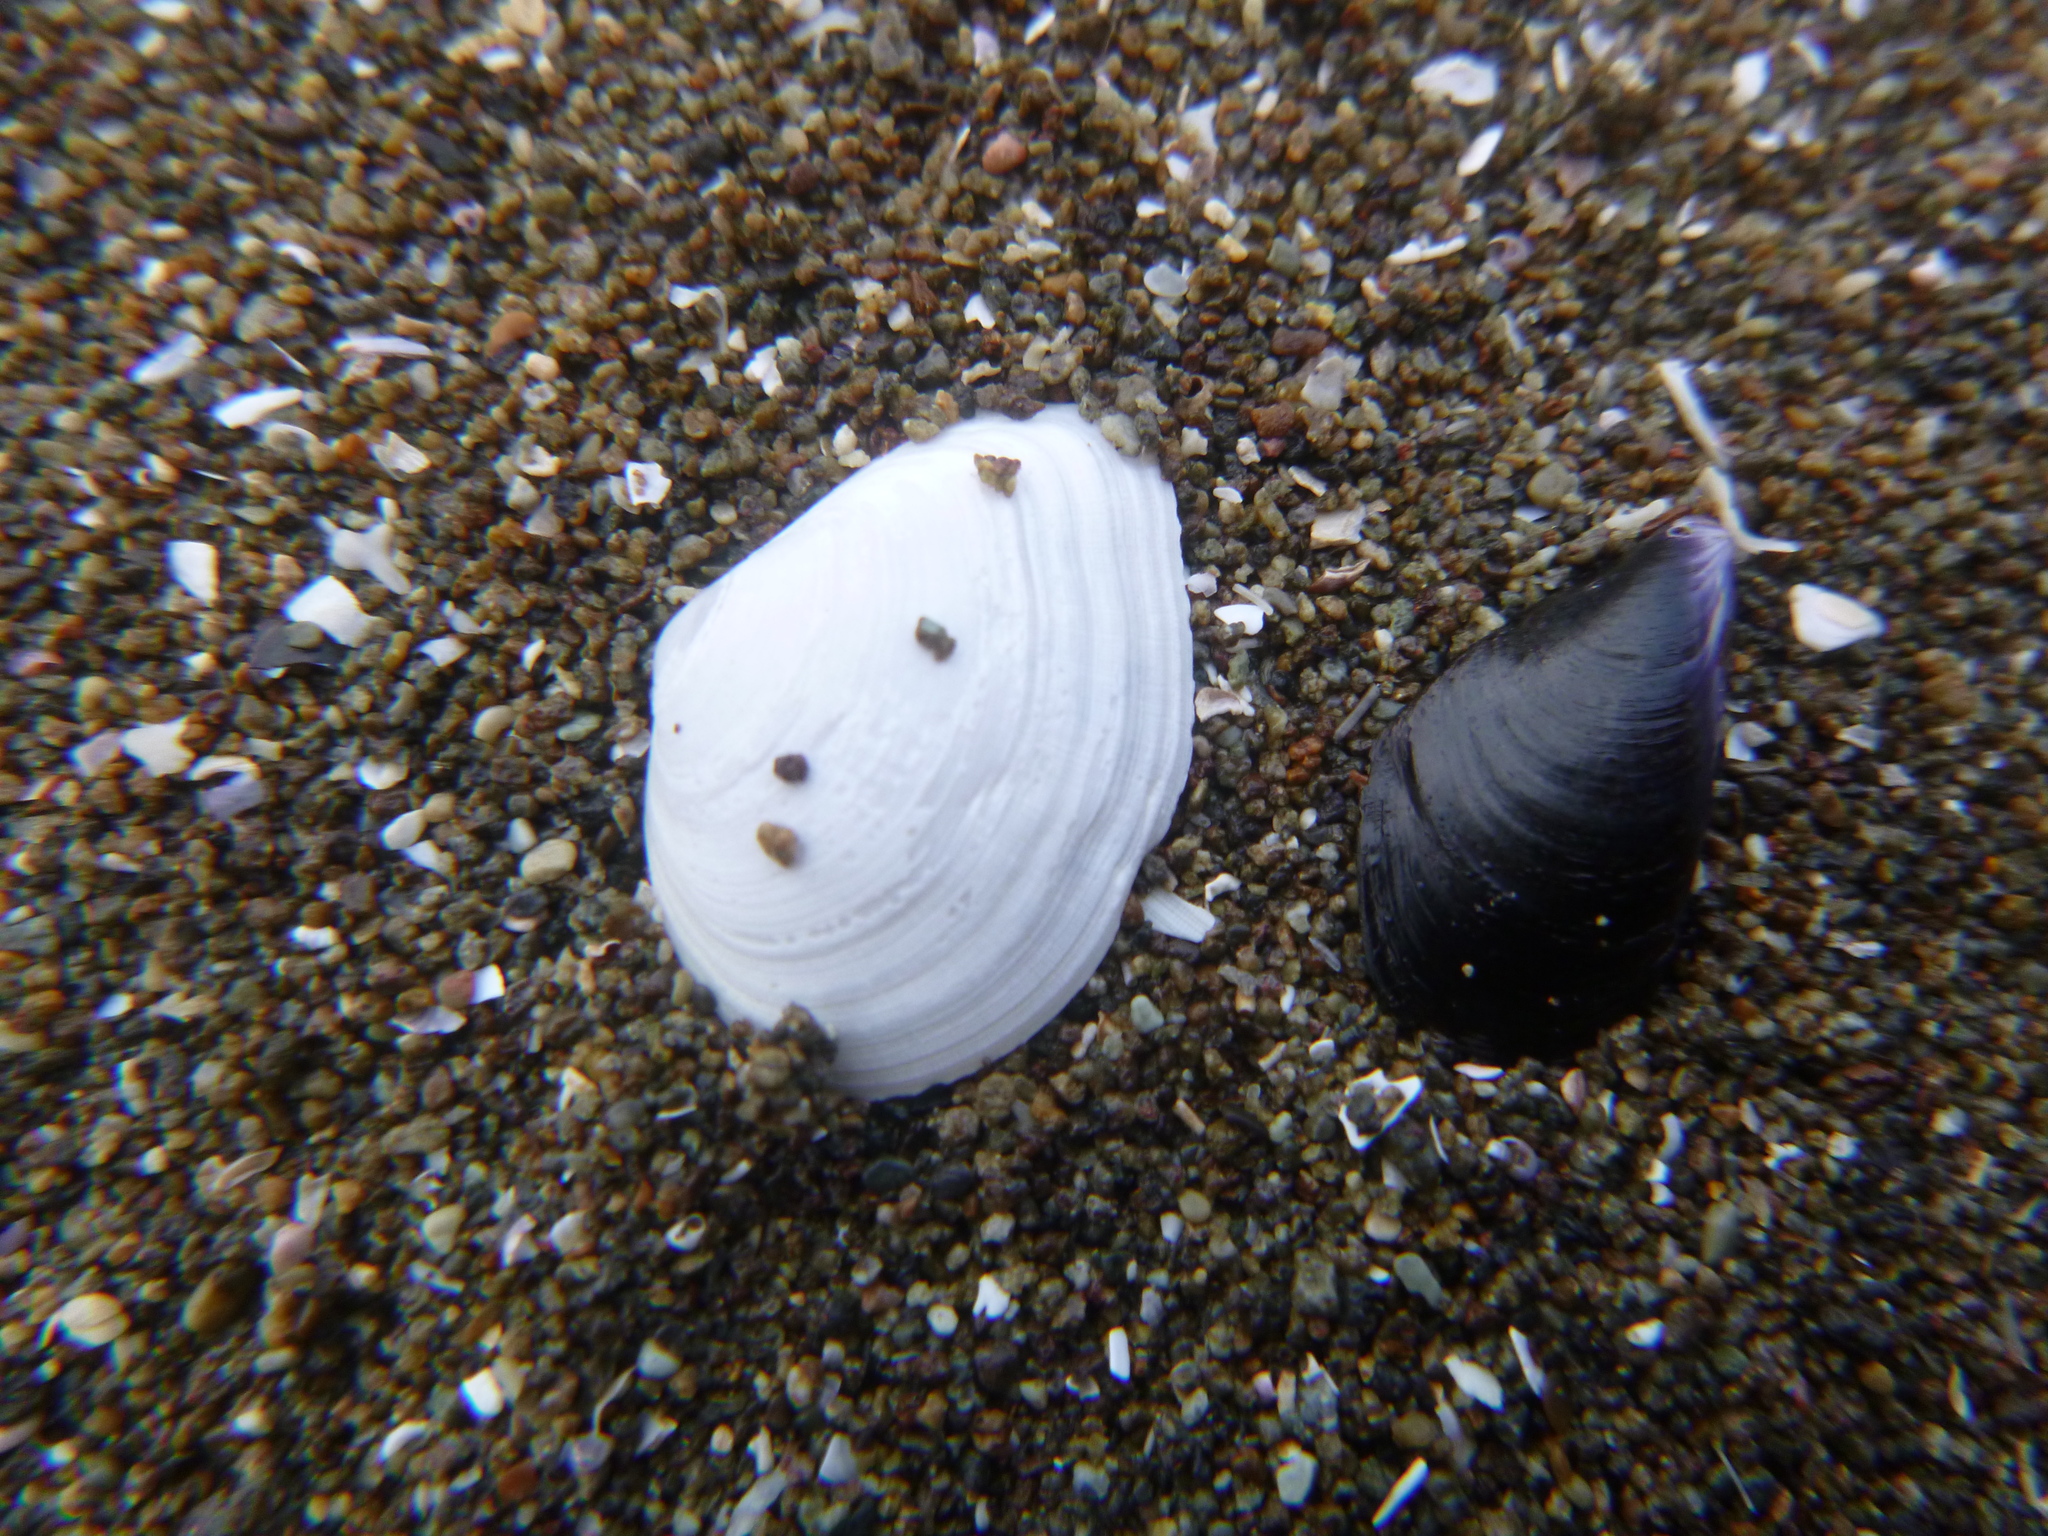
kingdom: Animalia
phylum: Mollusca
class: Bivalvia
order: Cardiida
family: Semelidae
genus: Leptomya
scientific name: Leptomya retiaria
